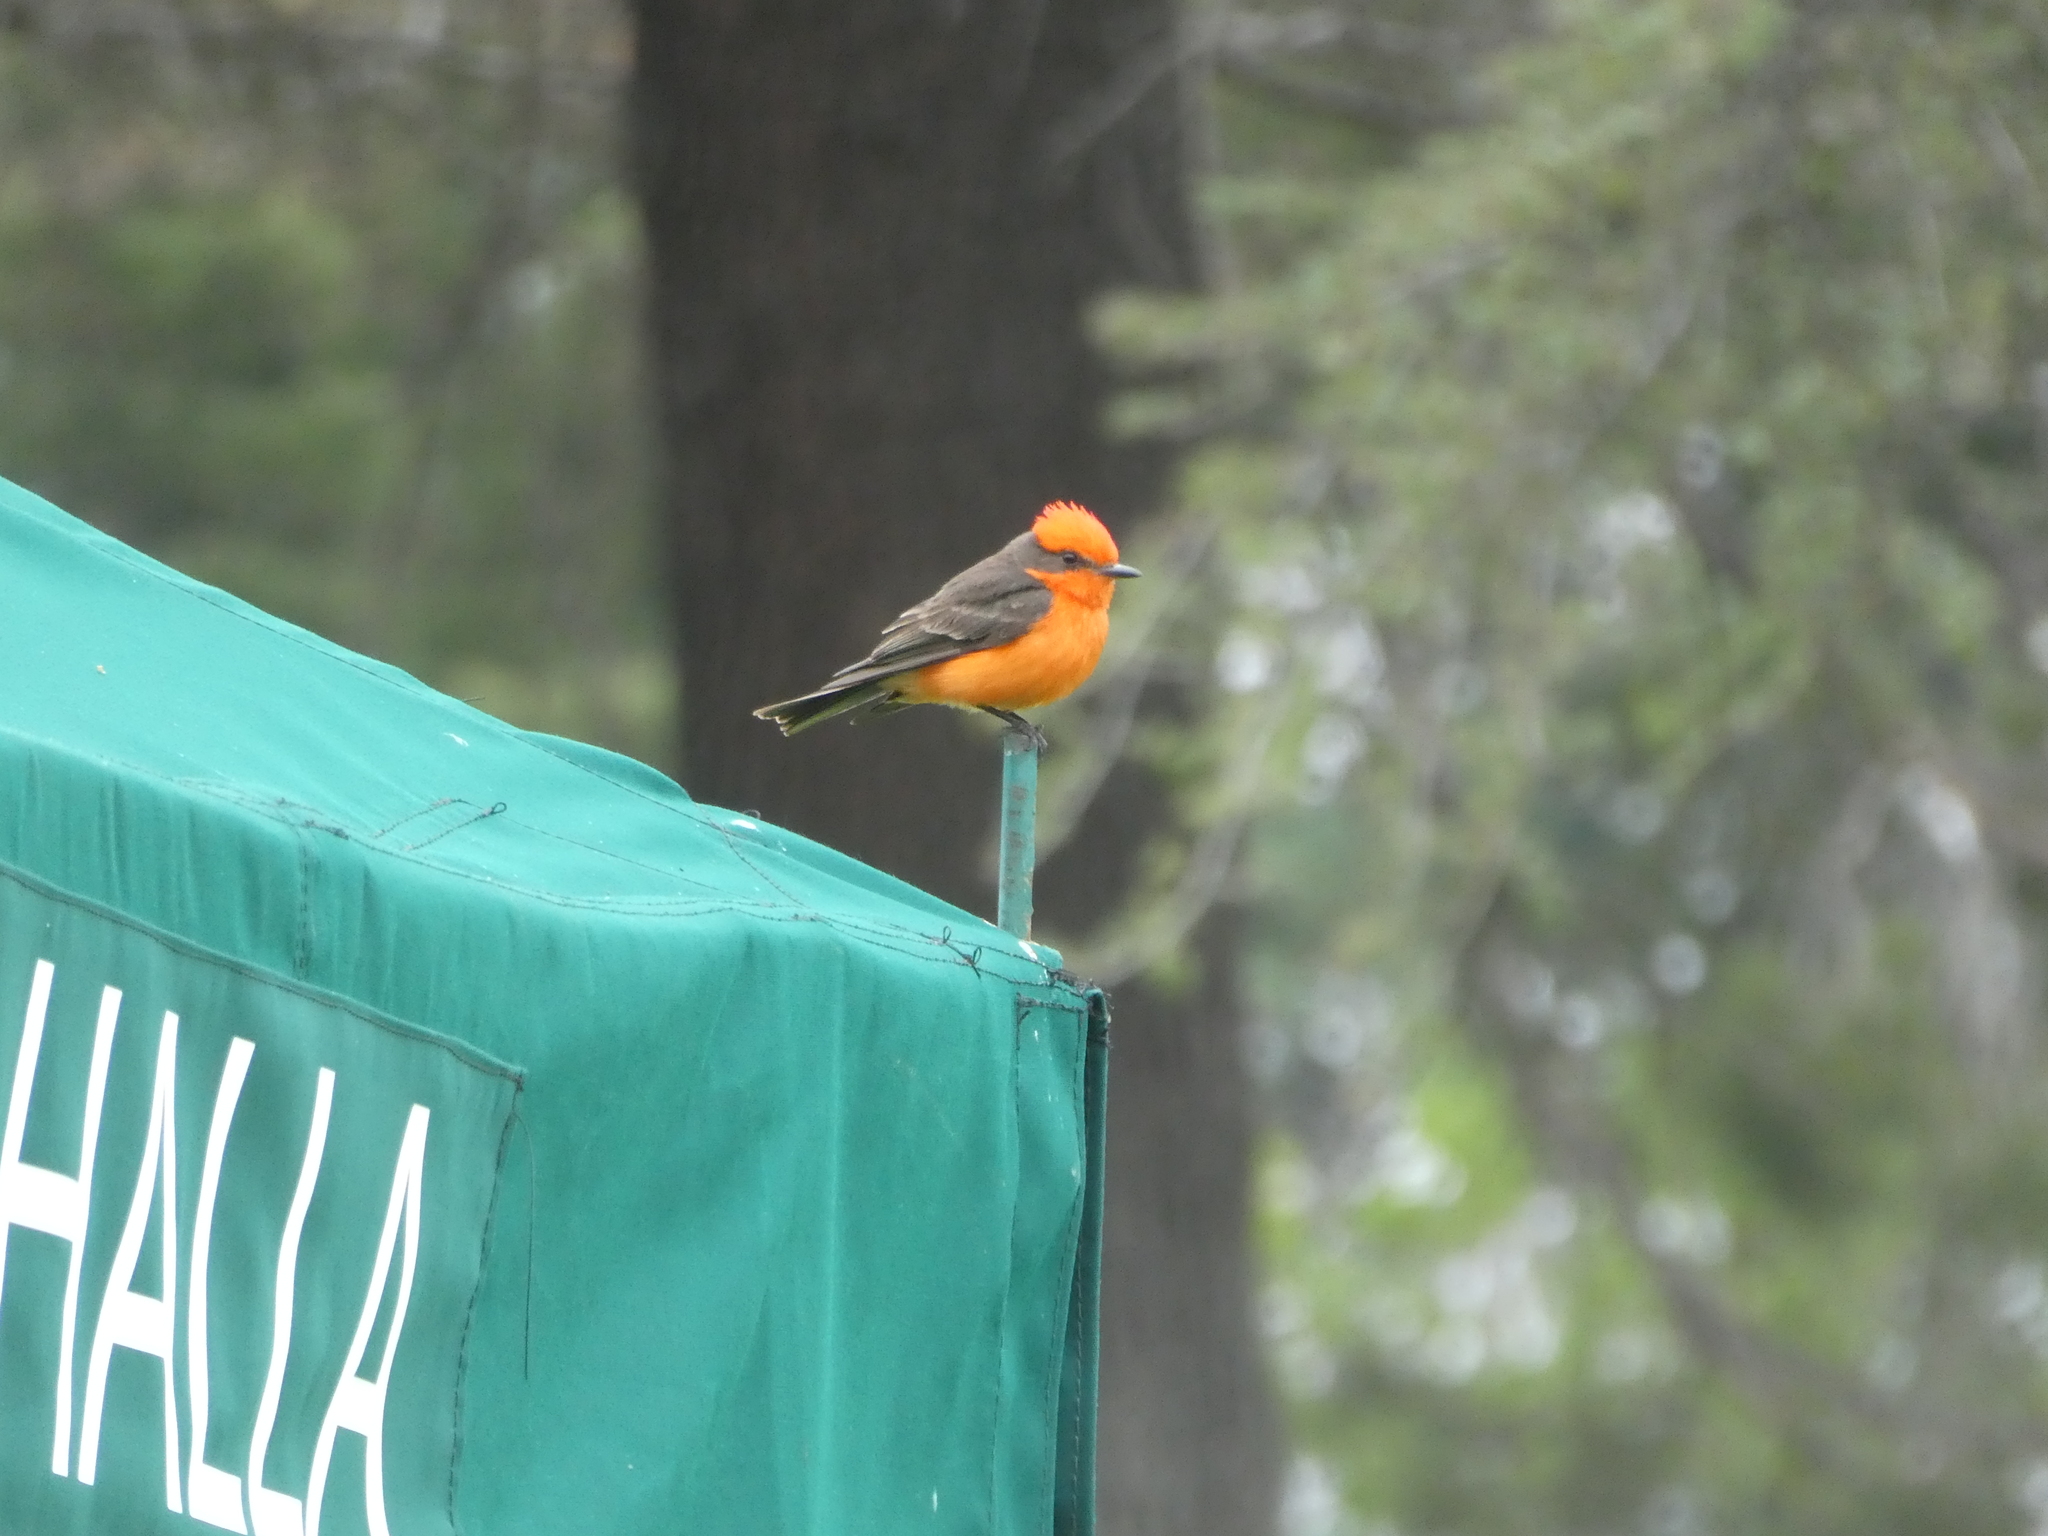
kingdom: Animalia
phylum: Chordata
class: Aves
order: Passeriformes
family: Tyrannidae
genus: Pyrocephalus
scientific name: Pyrocephalus rubinus
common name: Vermilion flycatcher
